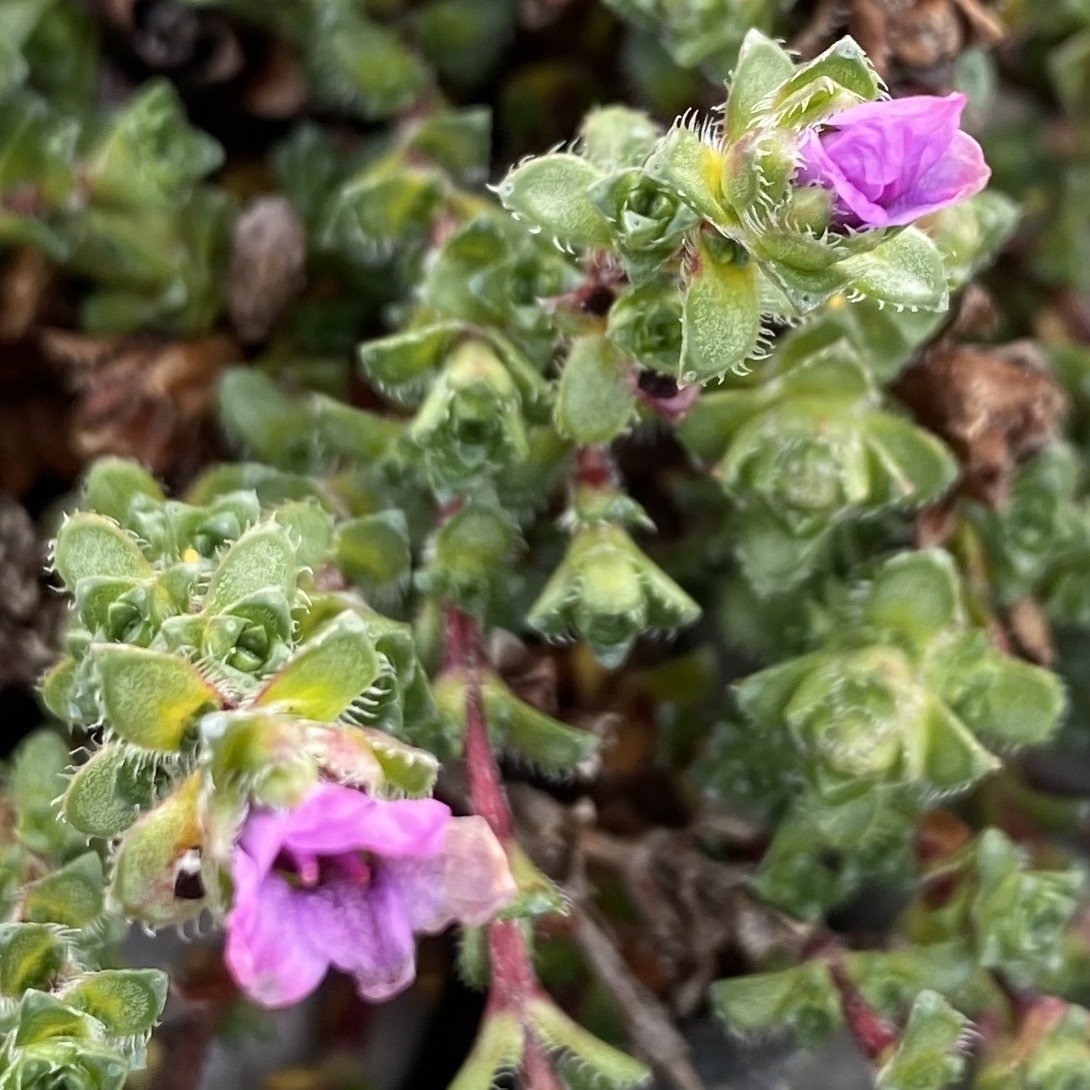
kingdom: Plantae
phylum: Tracheophyta
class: Magnoliopsida
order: Saxifragales
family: Saxifragaceae
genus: Saxifraga
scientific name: Saxifraga oppositifolia
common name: Purple saxifrage
